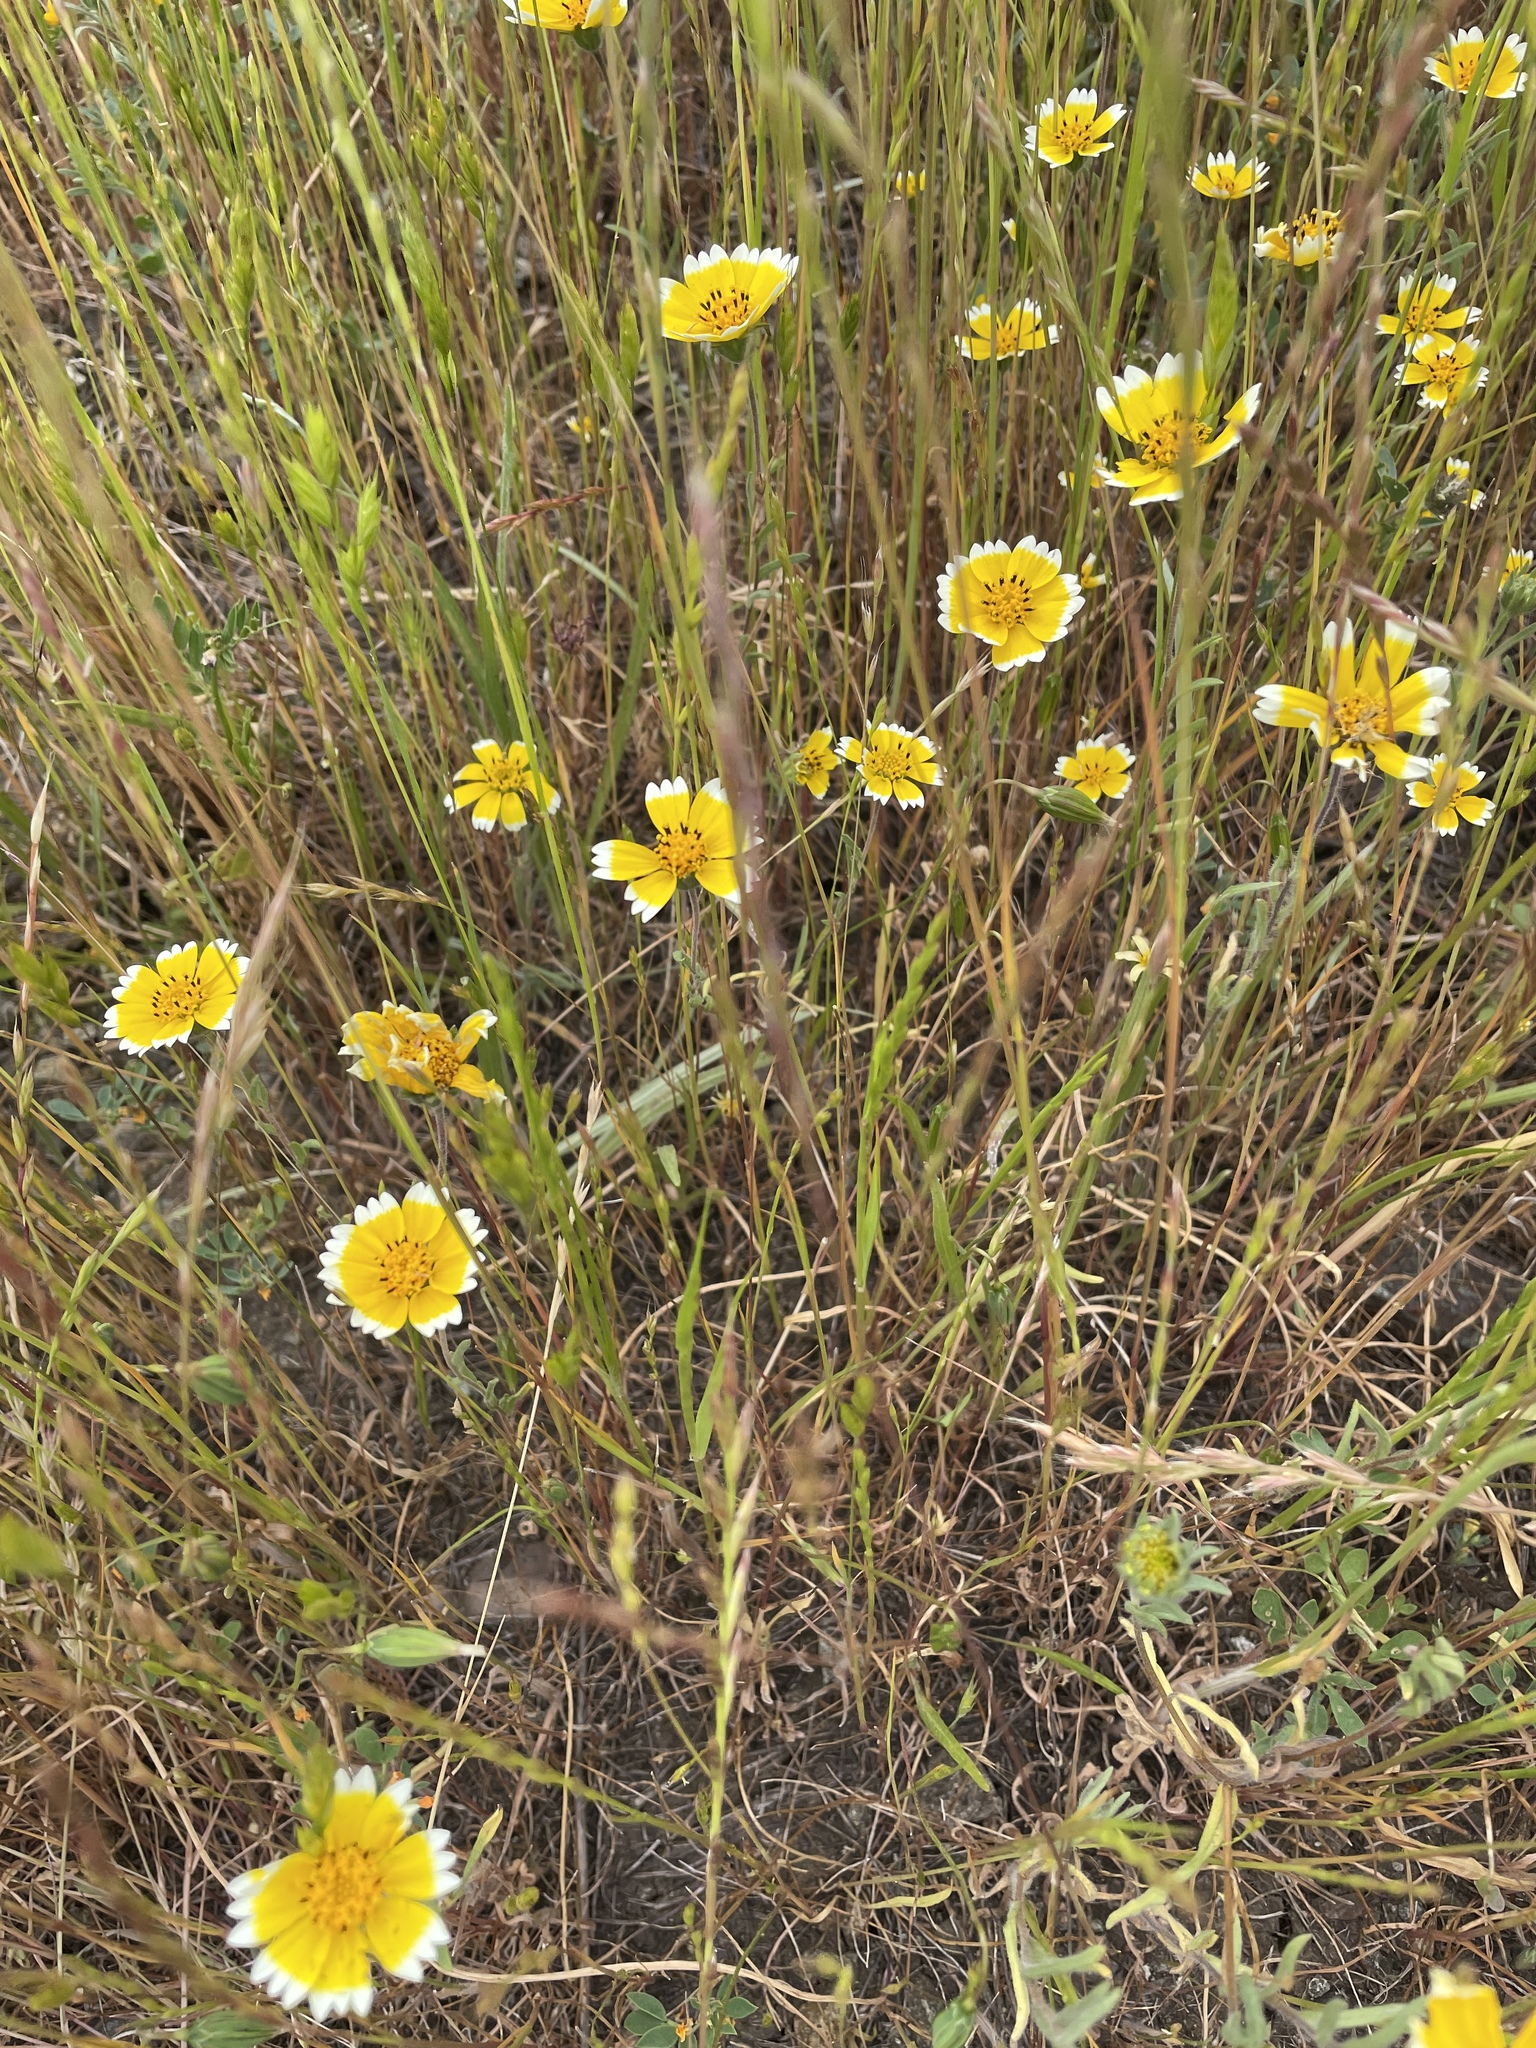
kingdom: Plantae
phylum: Tracheophyta
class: Magnoliopsida
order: Asterales
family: Asteraceae
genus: Layia
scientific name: Layia platyglossa
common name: Tidy-tips
